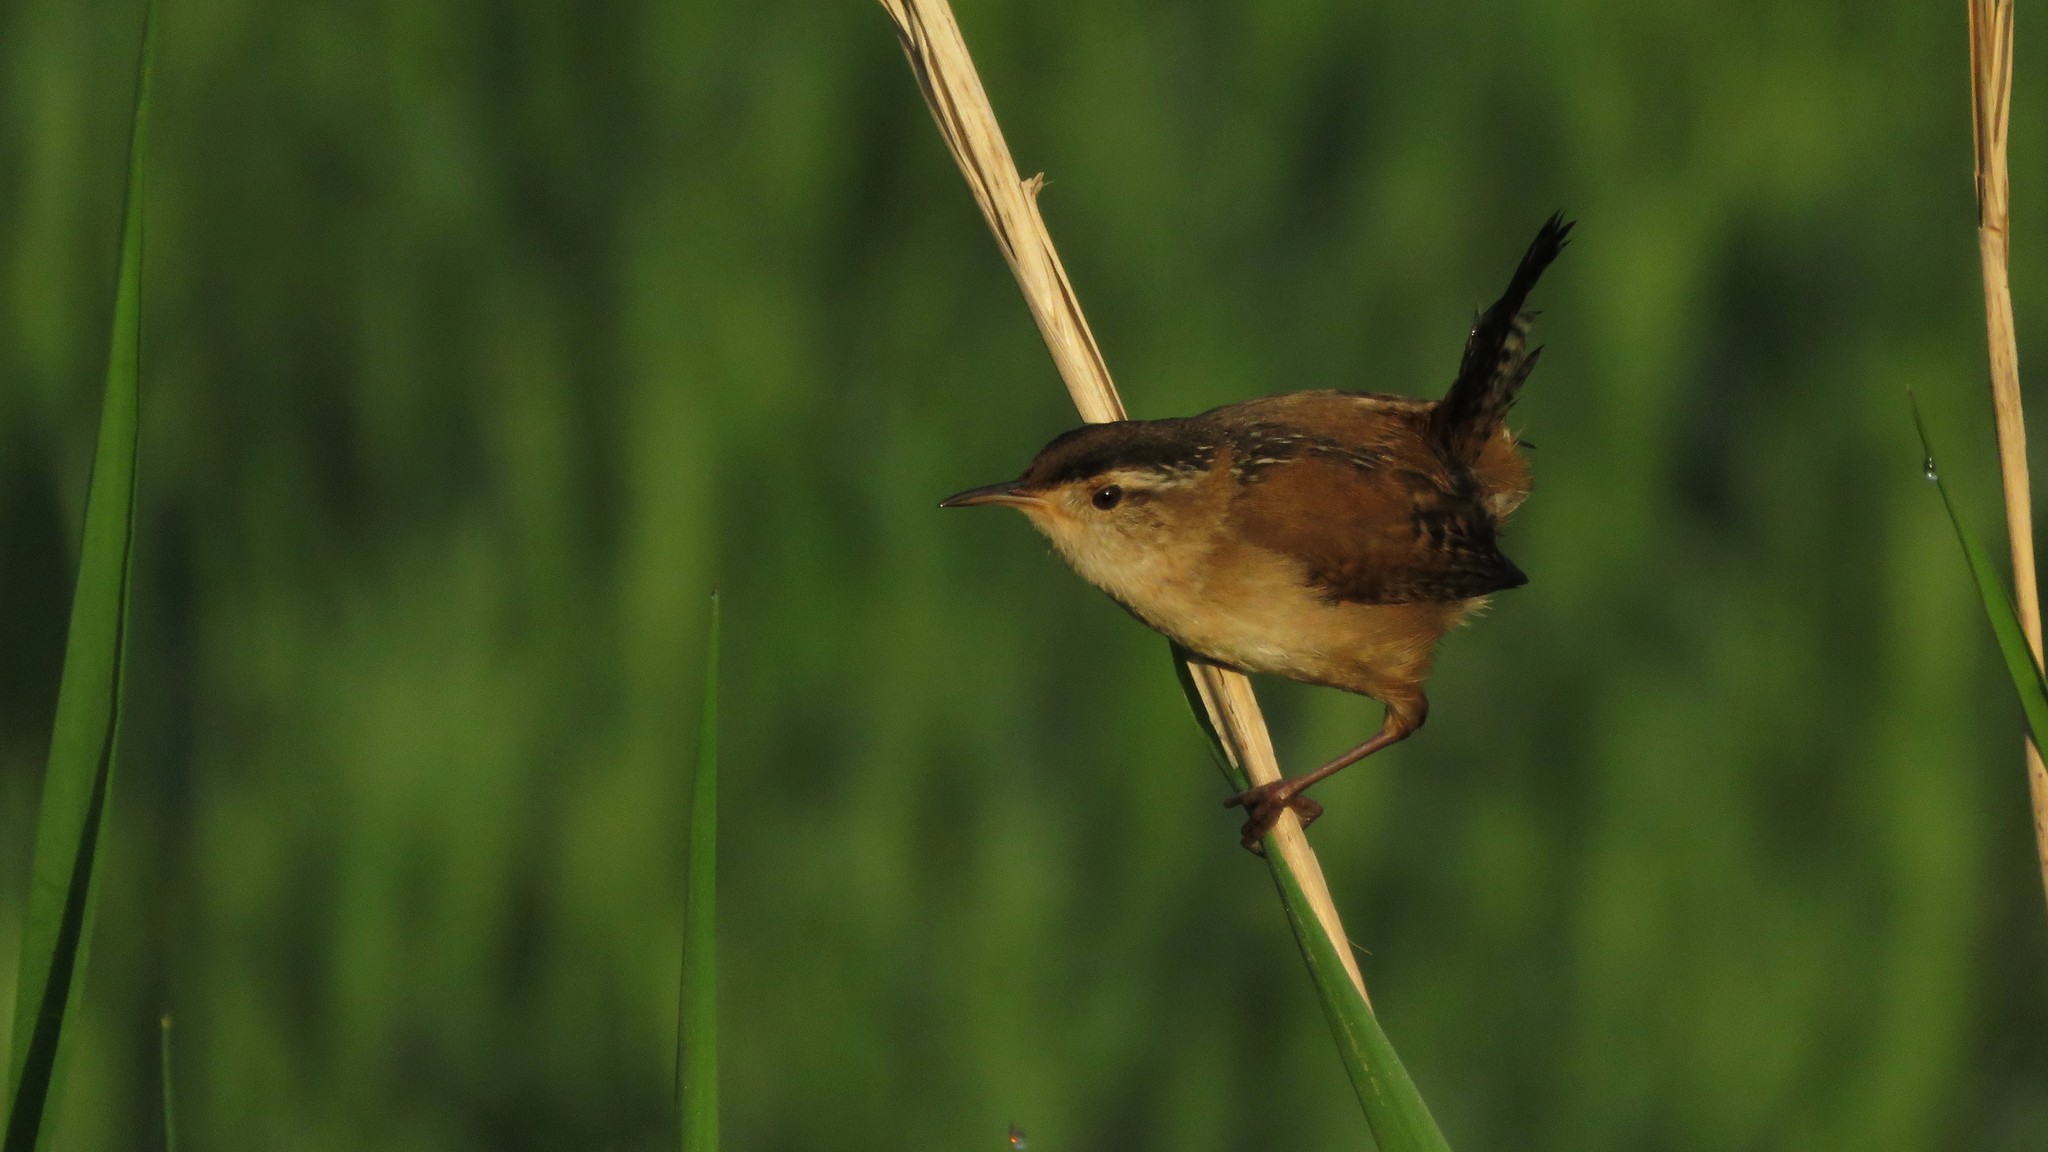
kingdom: Animalia
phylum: Chordata
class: Aves
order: Passeriformes
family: Troglodytidae
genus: Cistothorus
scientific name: Cistothorus palustris
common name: Marsh wren
